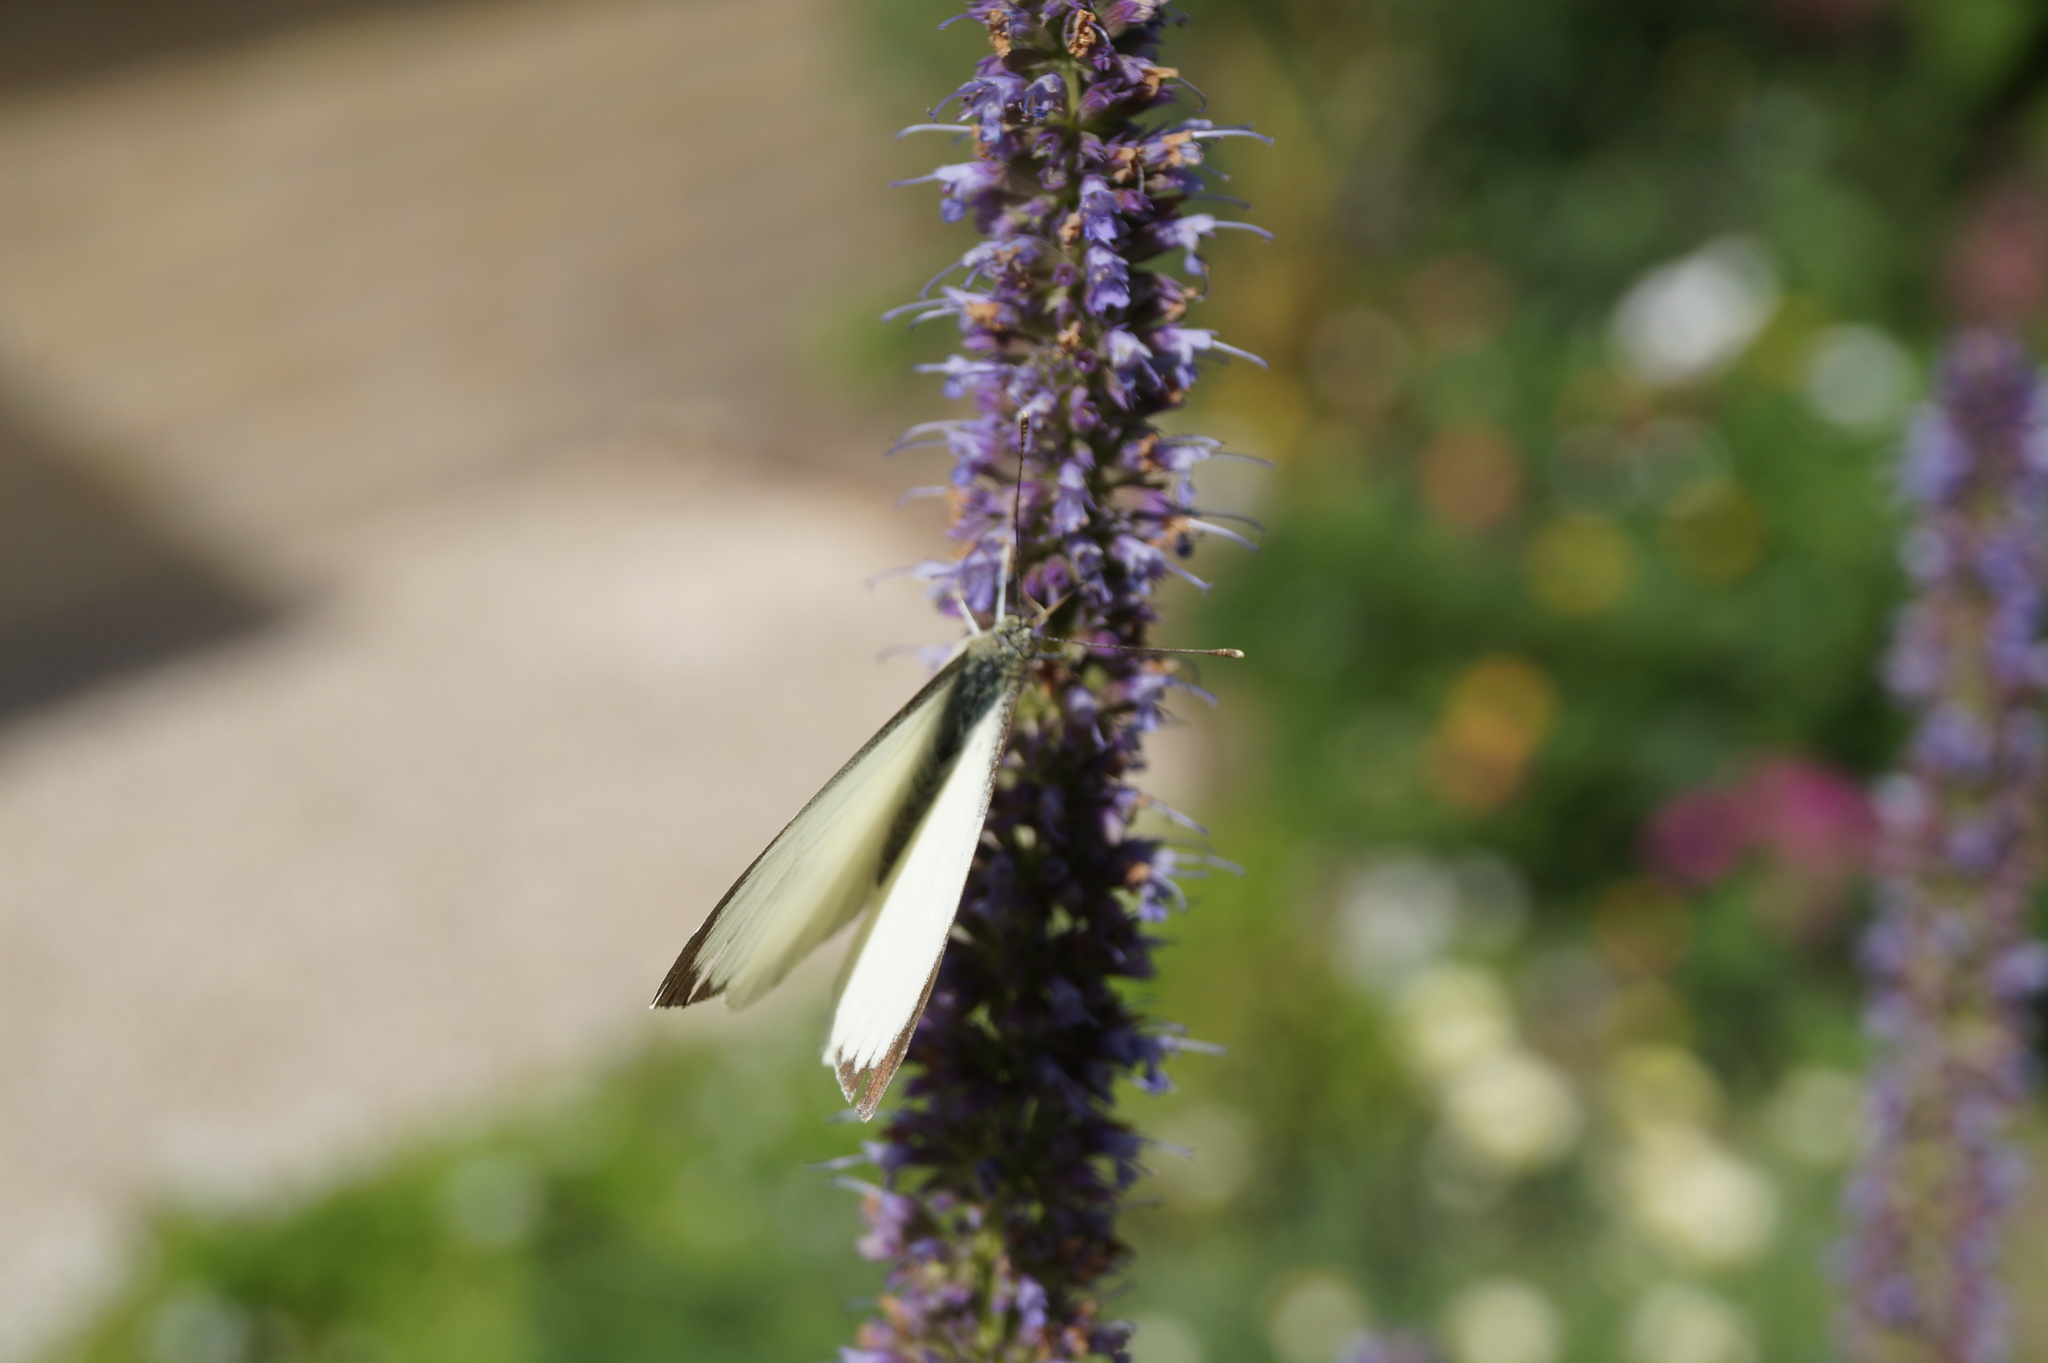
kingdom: Animalia
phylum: Arthropoda
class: Insecta
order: Lepidoptera
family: Pieridae
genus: Pieris
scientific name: Pieris brassicae
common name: Large white
